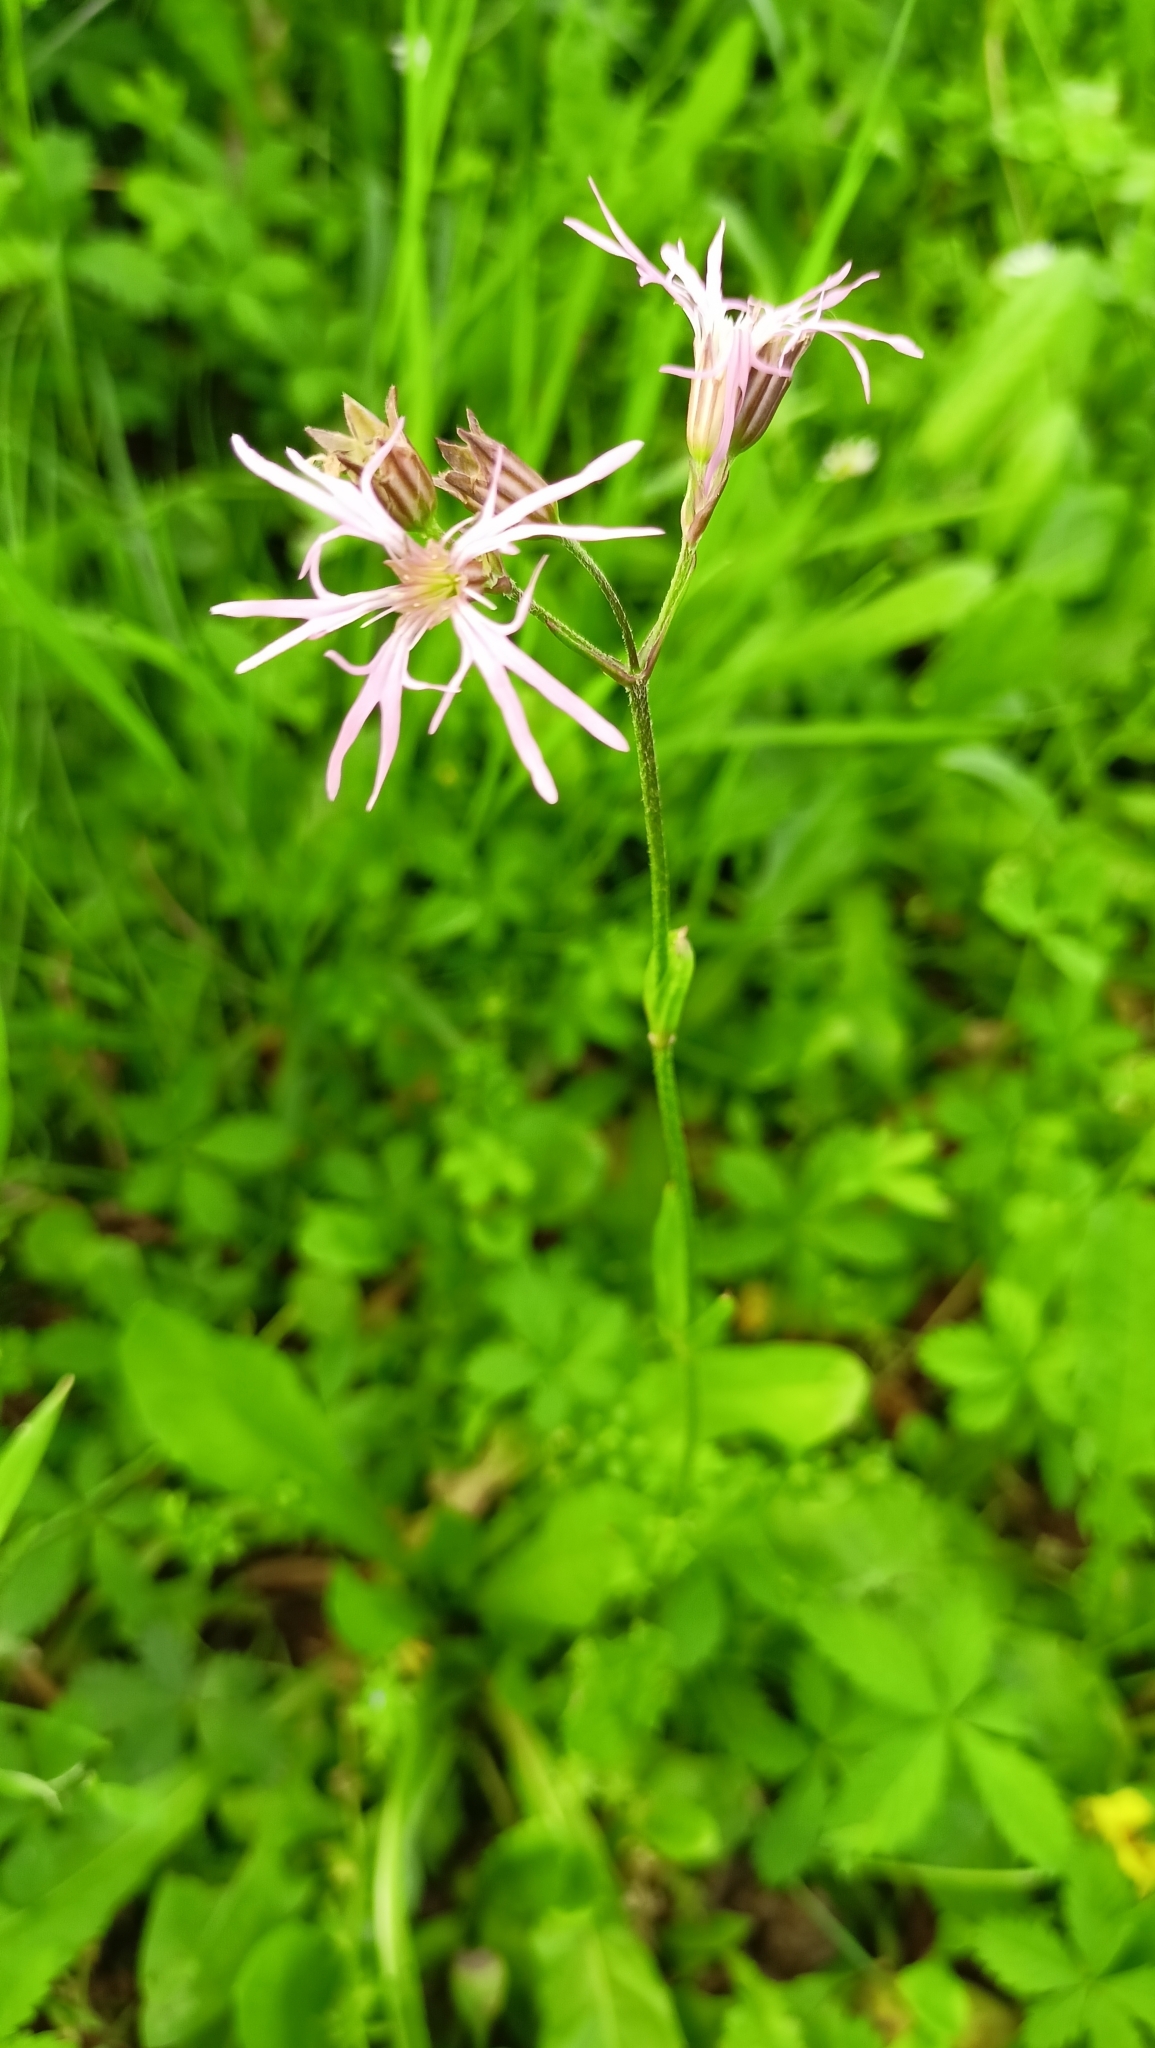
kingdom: Plantae
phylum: Tracheophyta
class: Magnoliopsida
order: Caryophyllales
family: Caryophyllaceae
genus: Silene
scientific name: Silene flos-cuculi
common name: Ragged-robin
